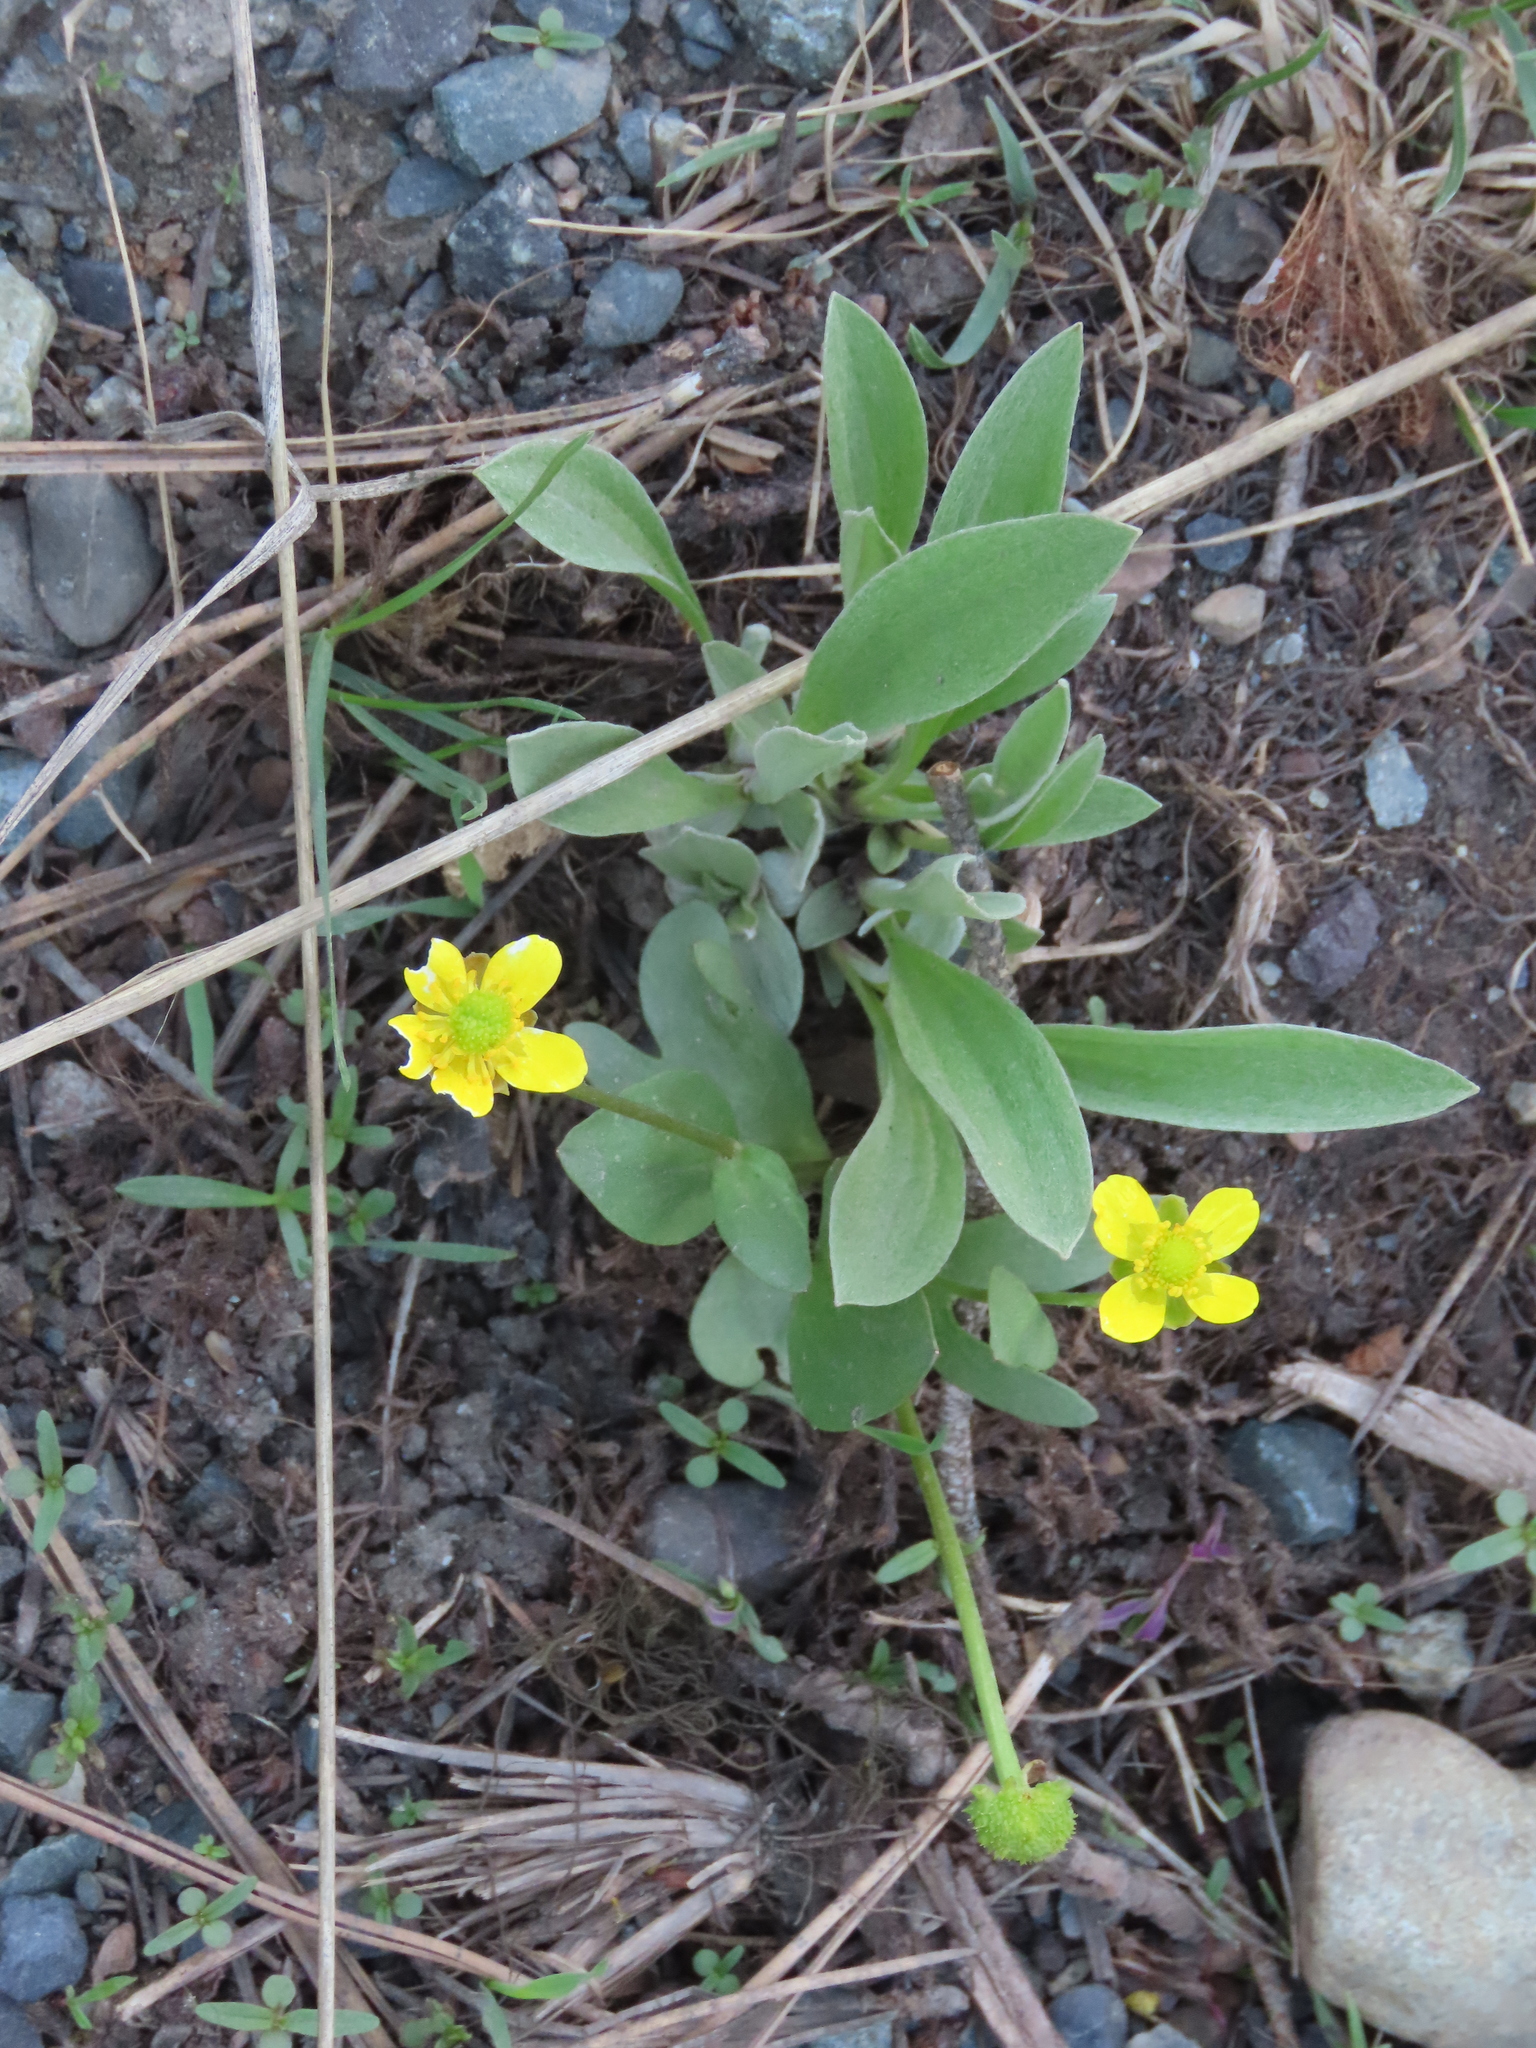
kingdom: Plantae
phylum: Tracheophyta
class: Magnoliopsida
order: Ranunculales
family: Ranunculaceae
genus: Ranunculus
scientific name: Ranunculus glaberrimus
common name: Sagebrush buttercup
